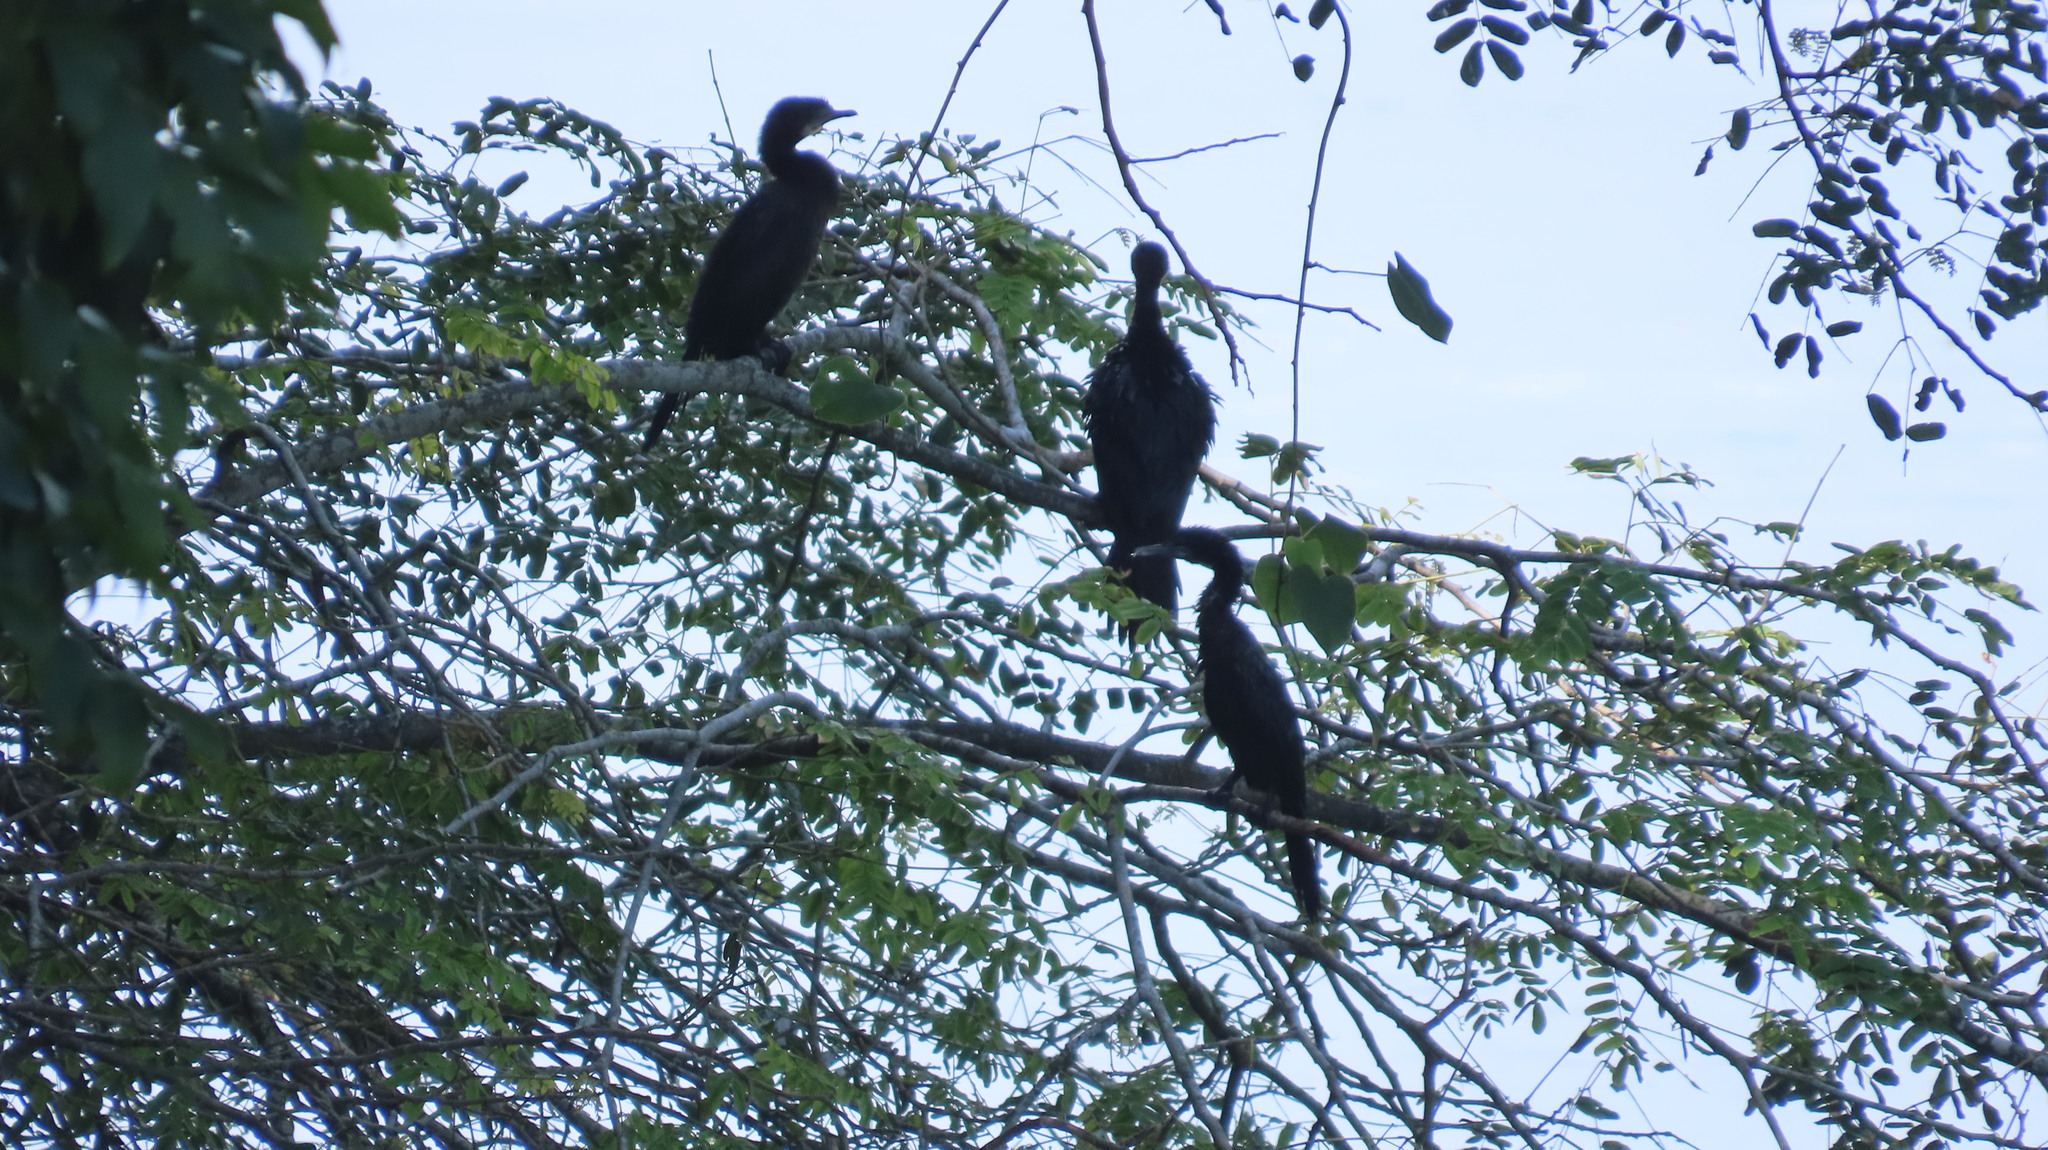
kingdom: Animalia
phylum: Chordata
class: Aves
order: Suliformes
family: Phalacrocoracidae
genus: Microcarbo
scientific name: Microcarbo niger
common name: Little cormorant
